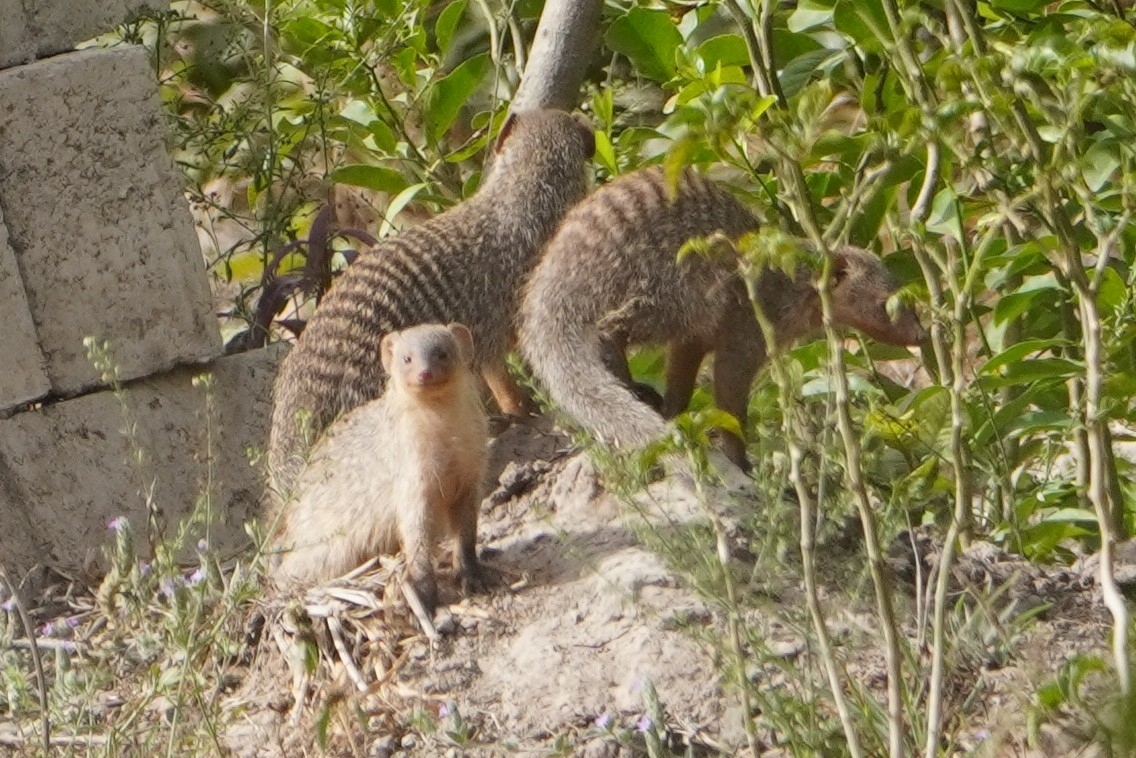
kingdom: Animalia
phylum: Chordata
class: Mammalia
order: Carnivora
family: Herpestidae
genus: Mungos
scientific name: Mungos mungo
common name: Banded mongoose
